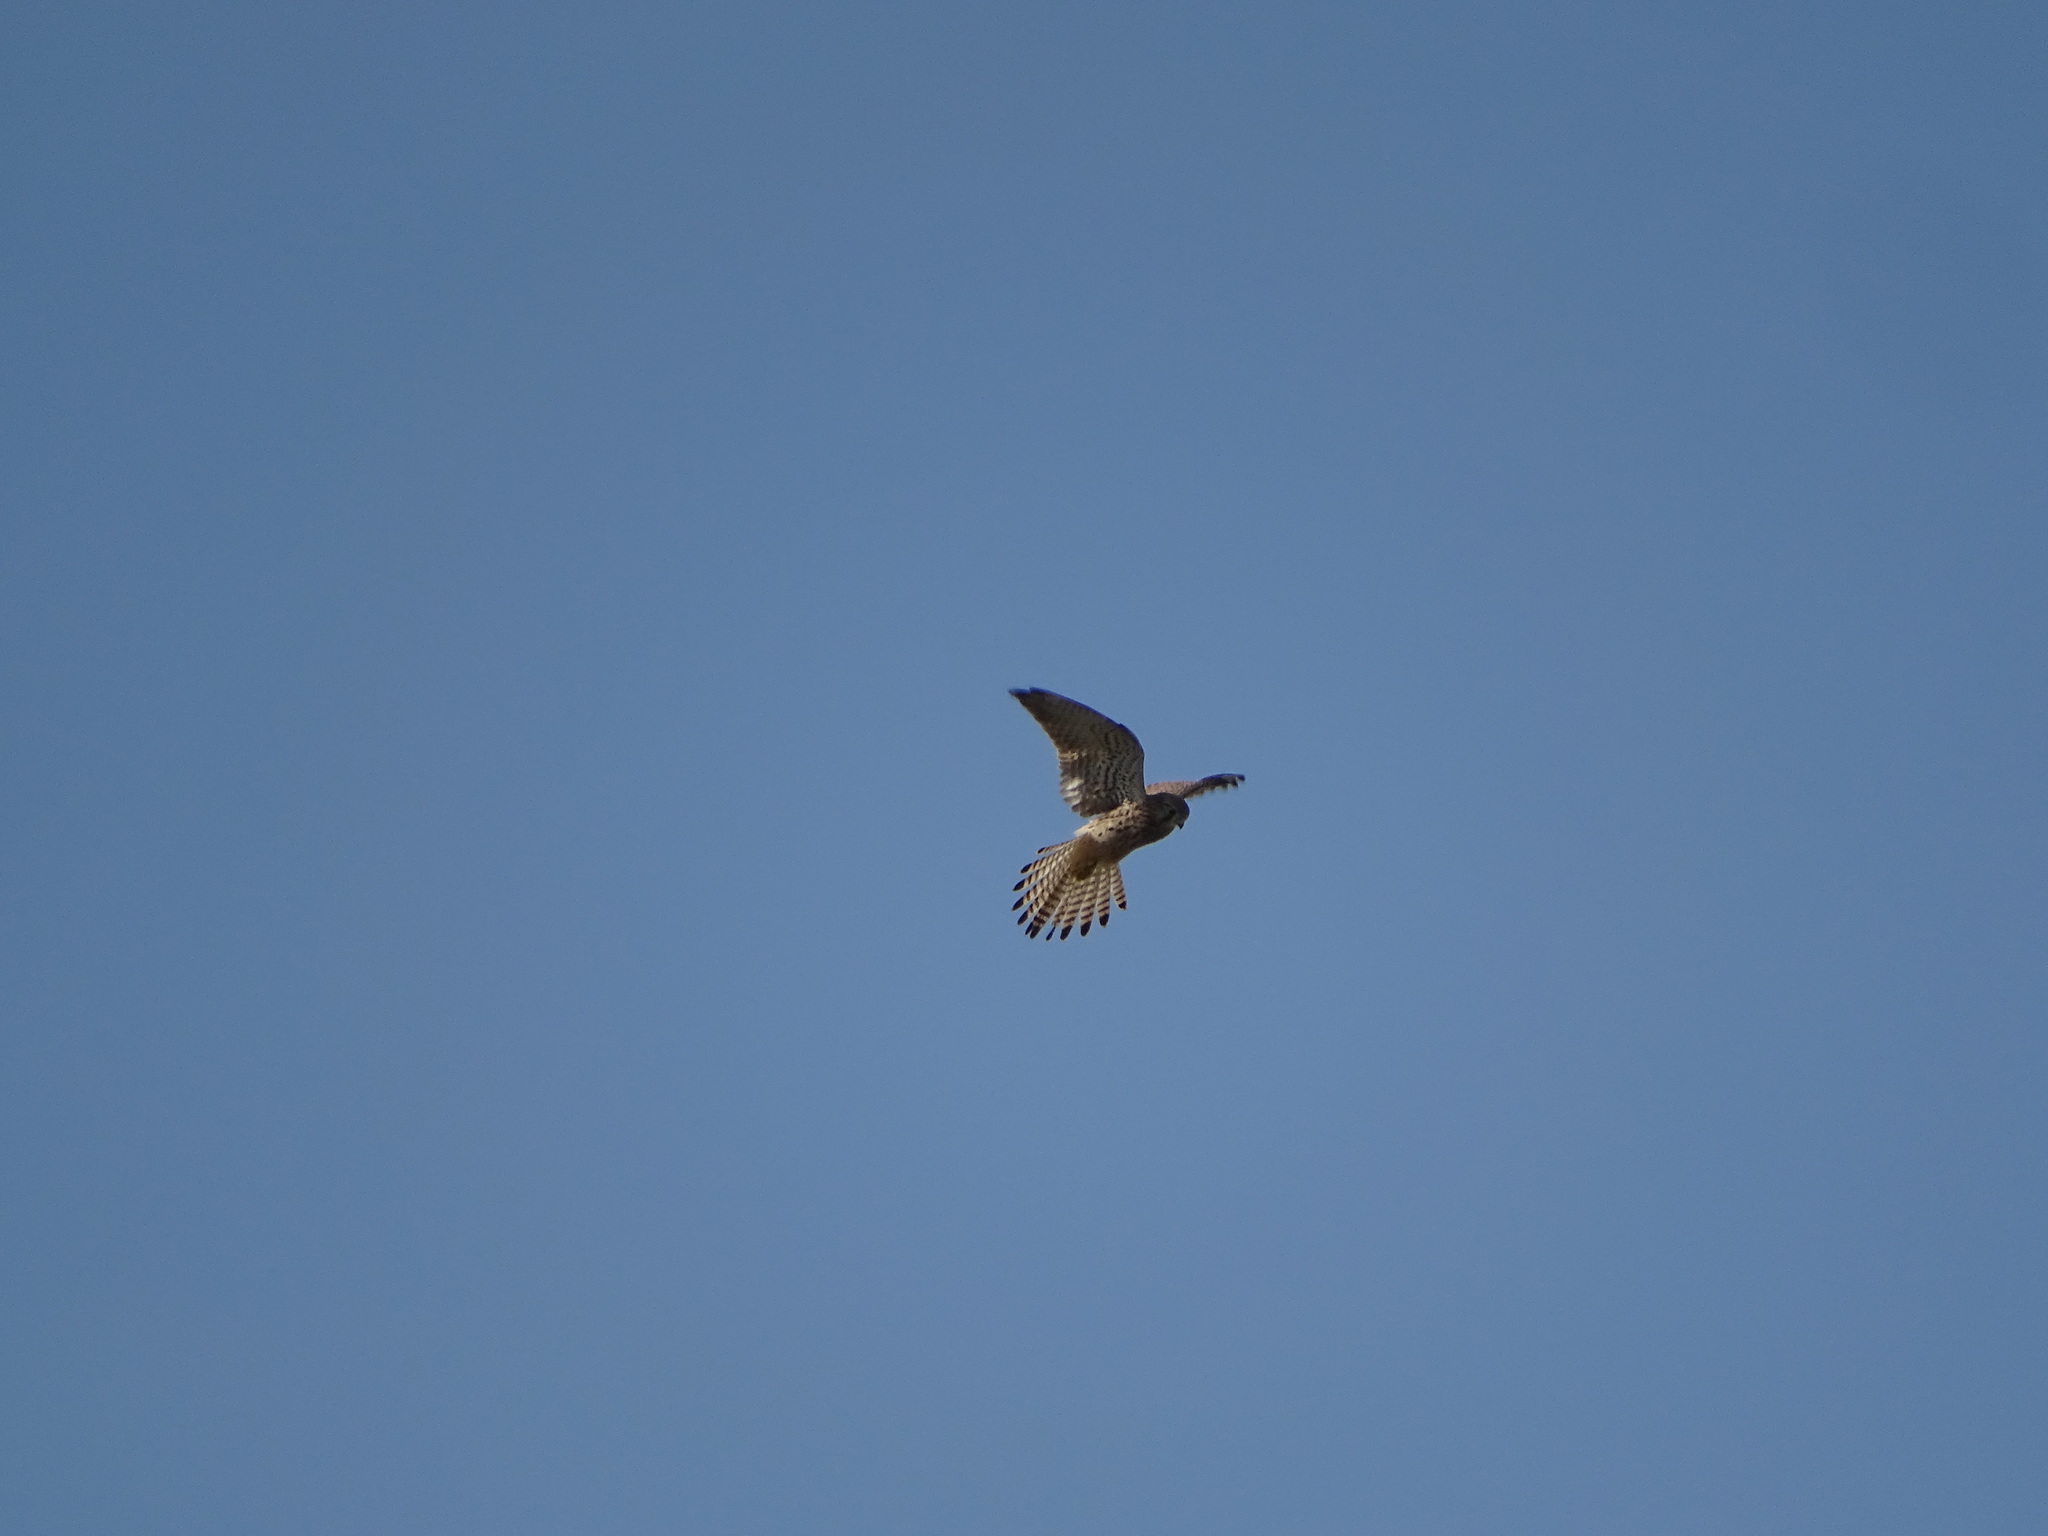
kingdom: Animalia
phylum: Chordata
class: Aves
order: Falconiformes
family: Falconidae
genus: Falco
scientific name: Falco tinnunculus
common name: Common kestrel
